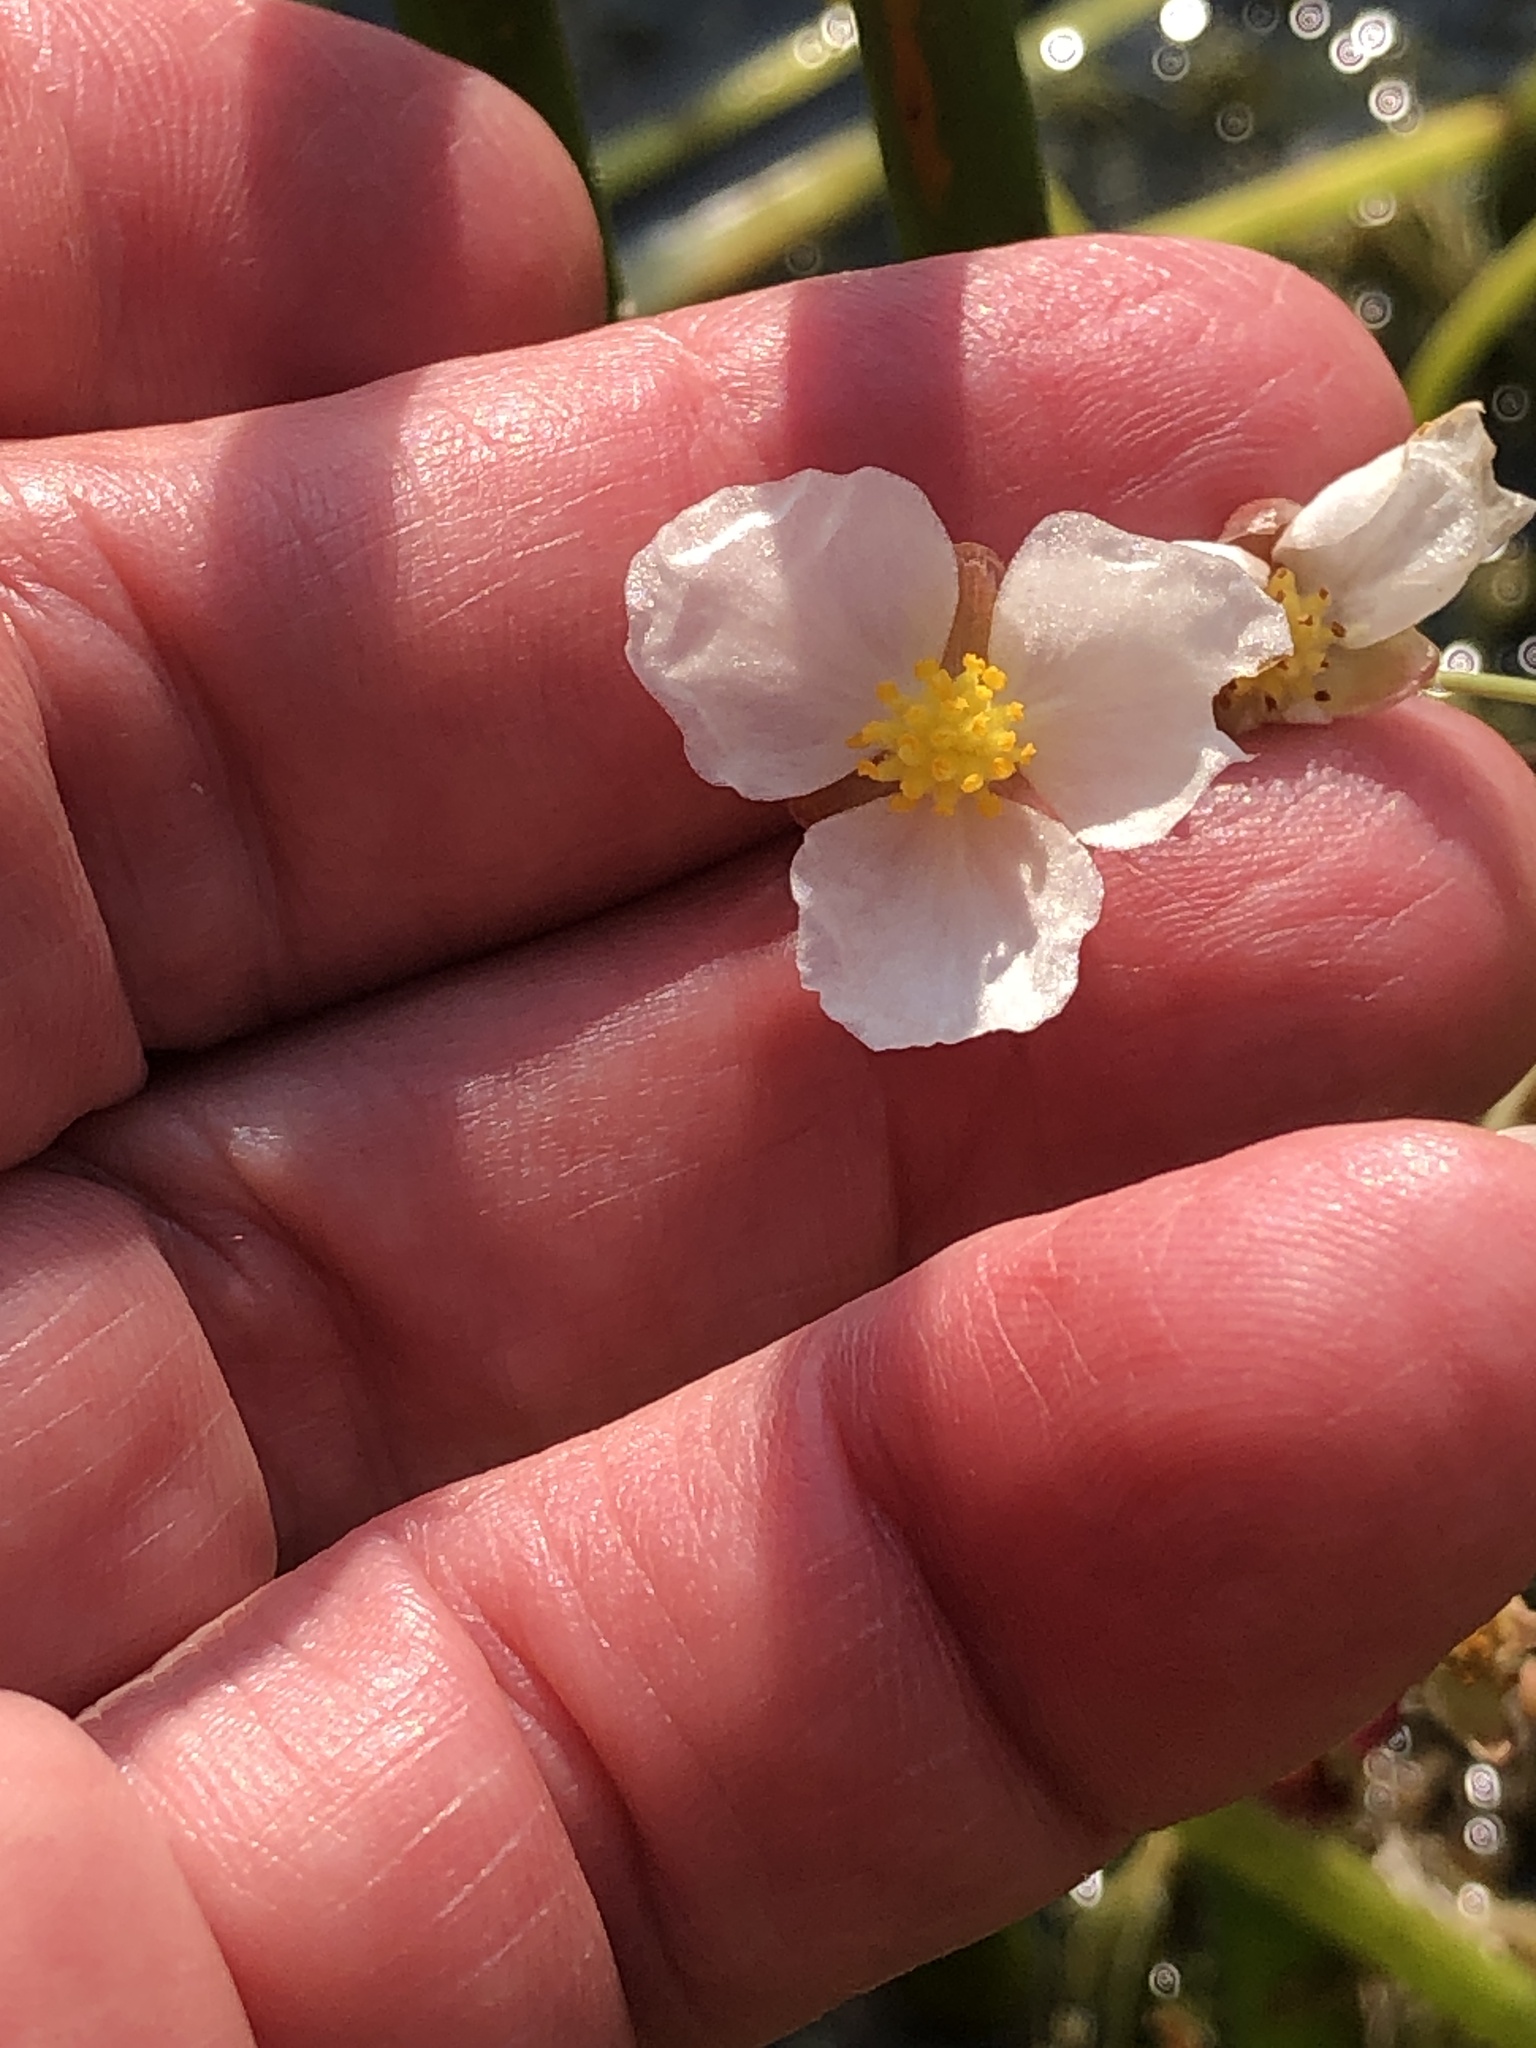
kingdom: Plantae
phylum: Tracheophyta
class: Liliopsida
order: Alismatales
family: Alismataceae
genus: Sagittaria
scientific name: Sagittaria rigida
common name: Canadian arrowhead
